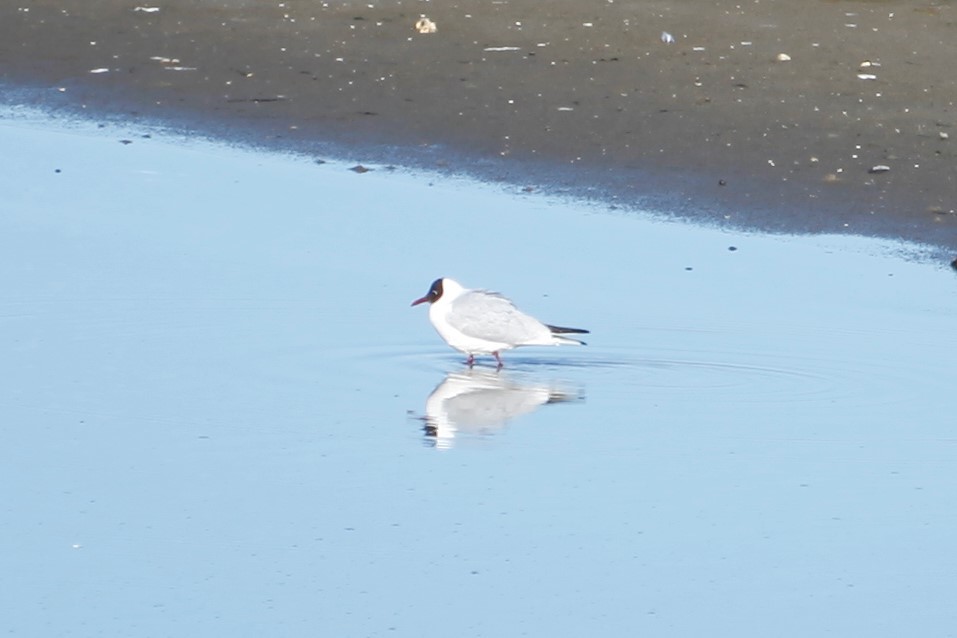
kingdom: Animalia
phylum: Chordata
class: Aves
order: Charadriiformes
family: Laridae
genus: Chroicocephalus
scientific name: Chroicocephalus ridibundus
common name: Black-headed gull
